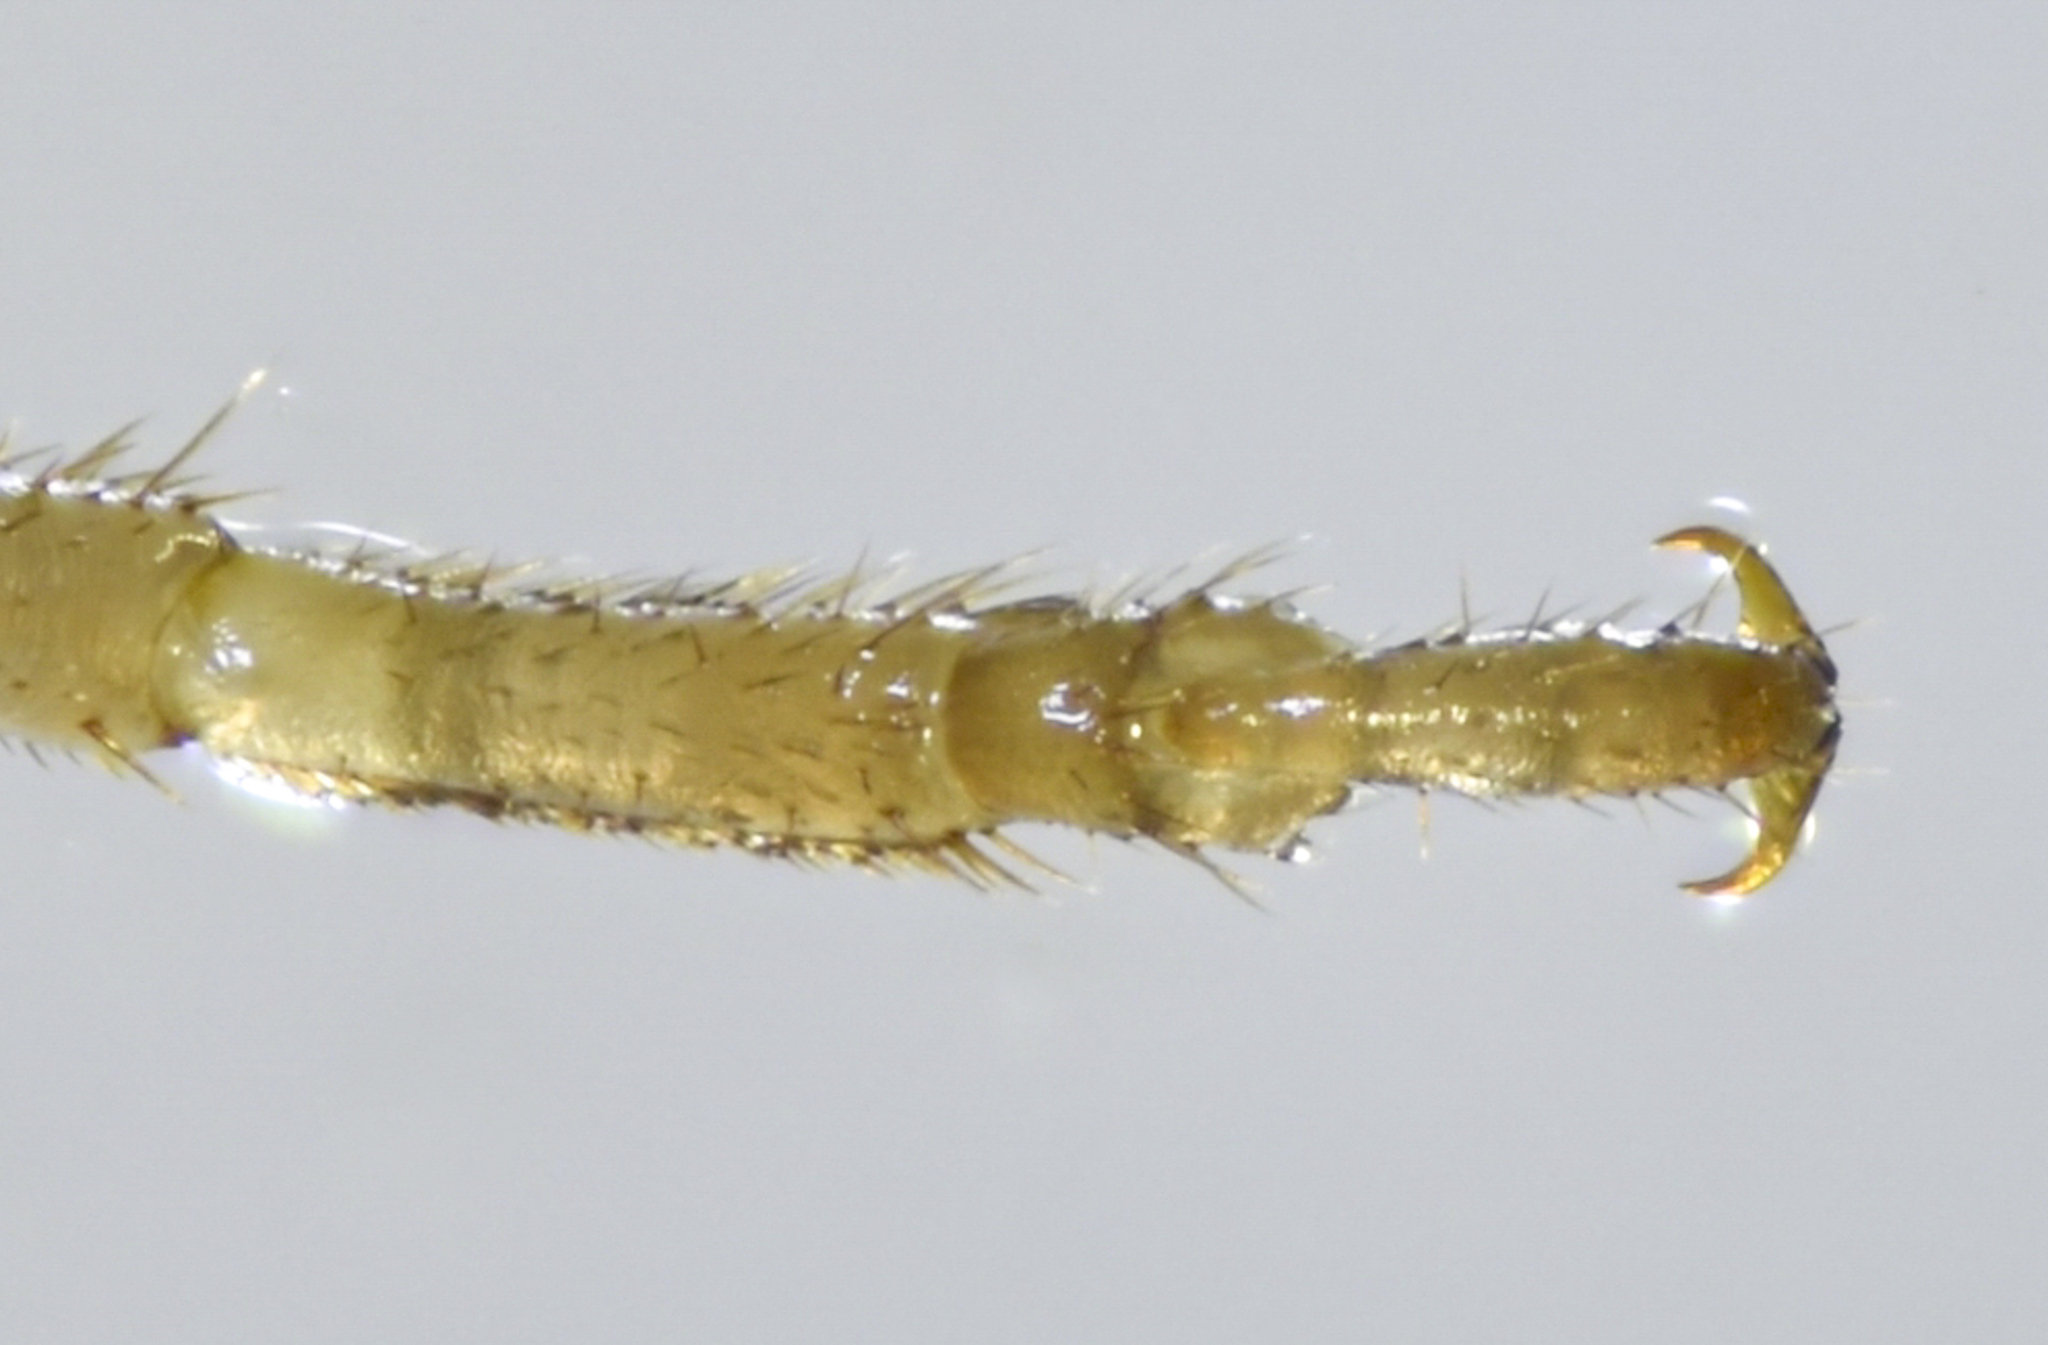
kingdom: Animalia
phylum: Arthropoda
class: Insecta
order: Dermaptera
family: Forficulidae
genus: Forficula
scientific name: Forficula dentata
